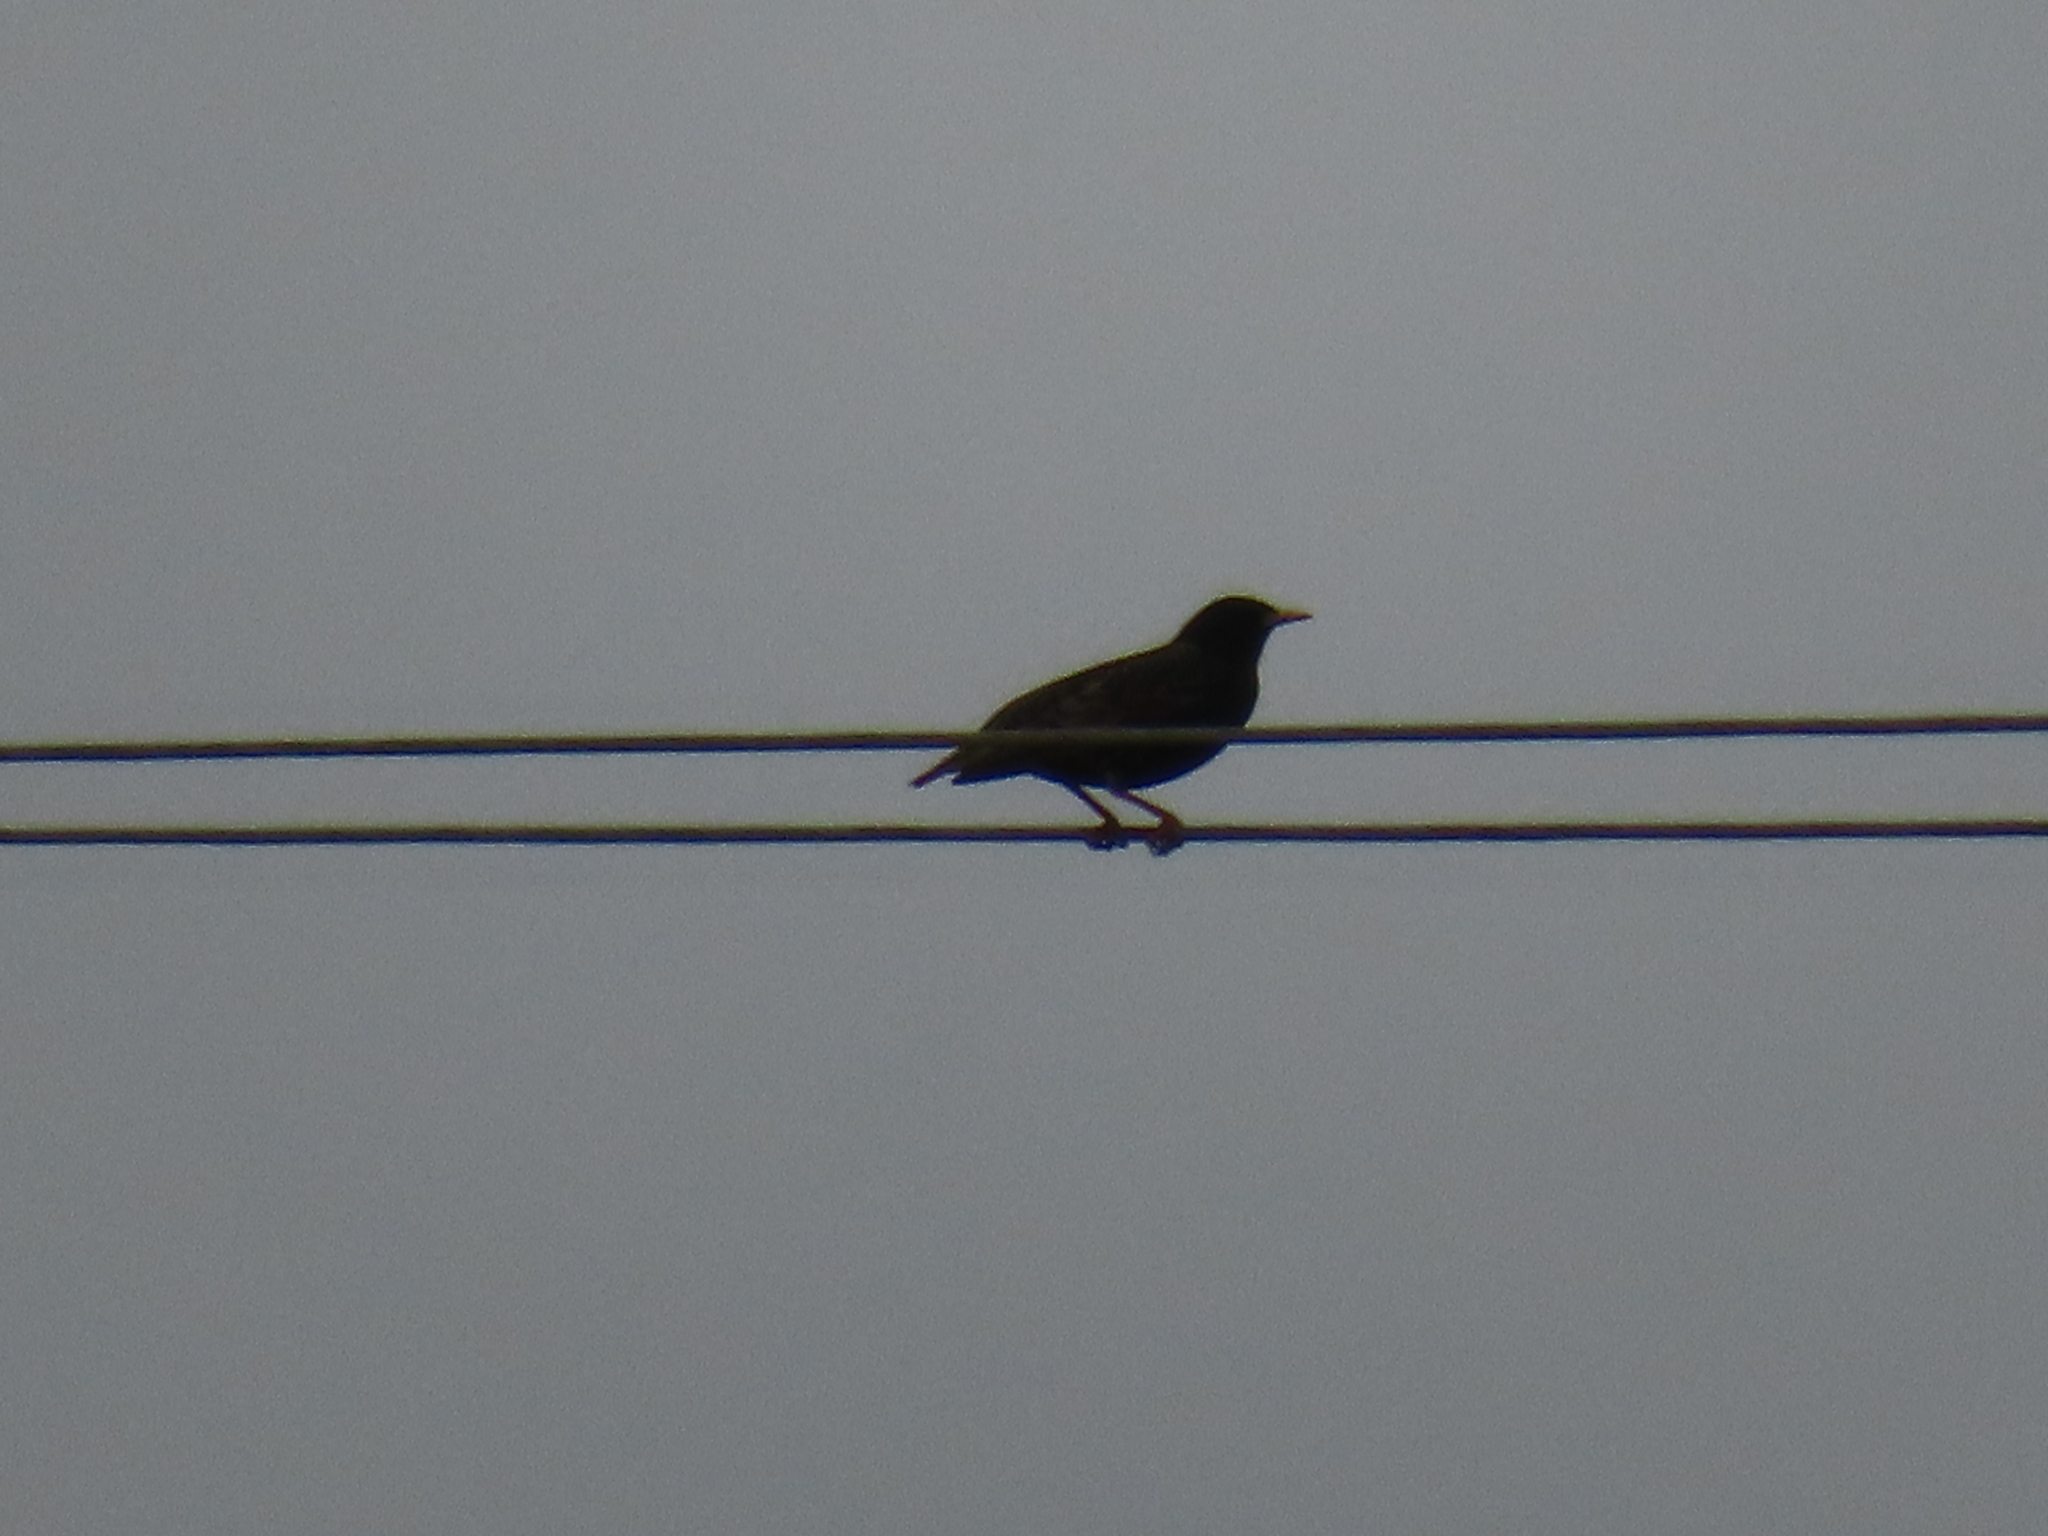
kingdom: Animalia
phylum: Chordata
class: Aves
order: Passeriformes
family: Sturnidae
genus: Sturnus
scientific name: Sturnus vulgaris
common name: Common starling
